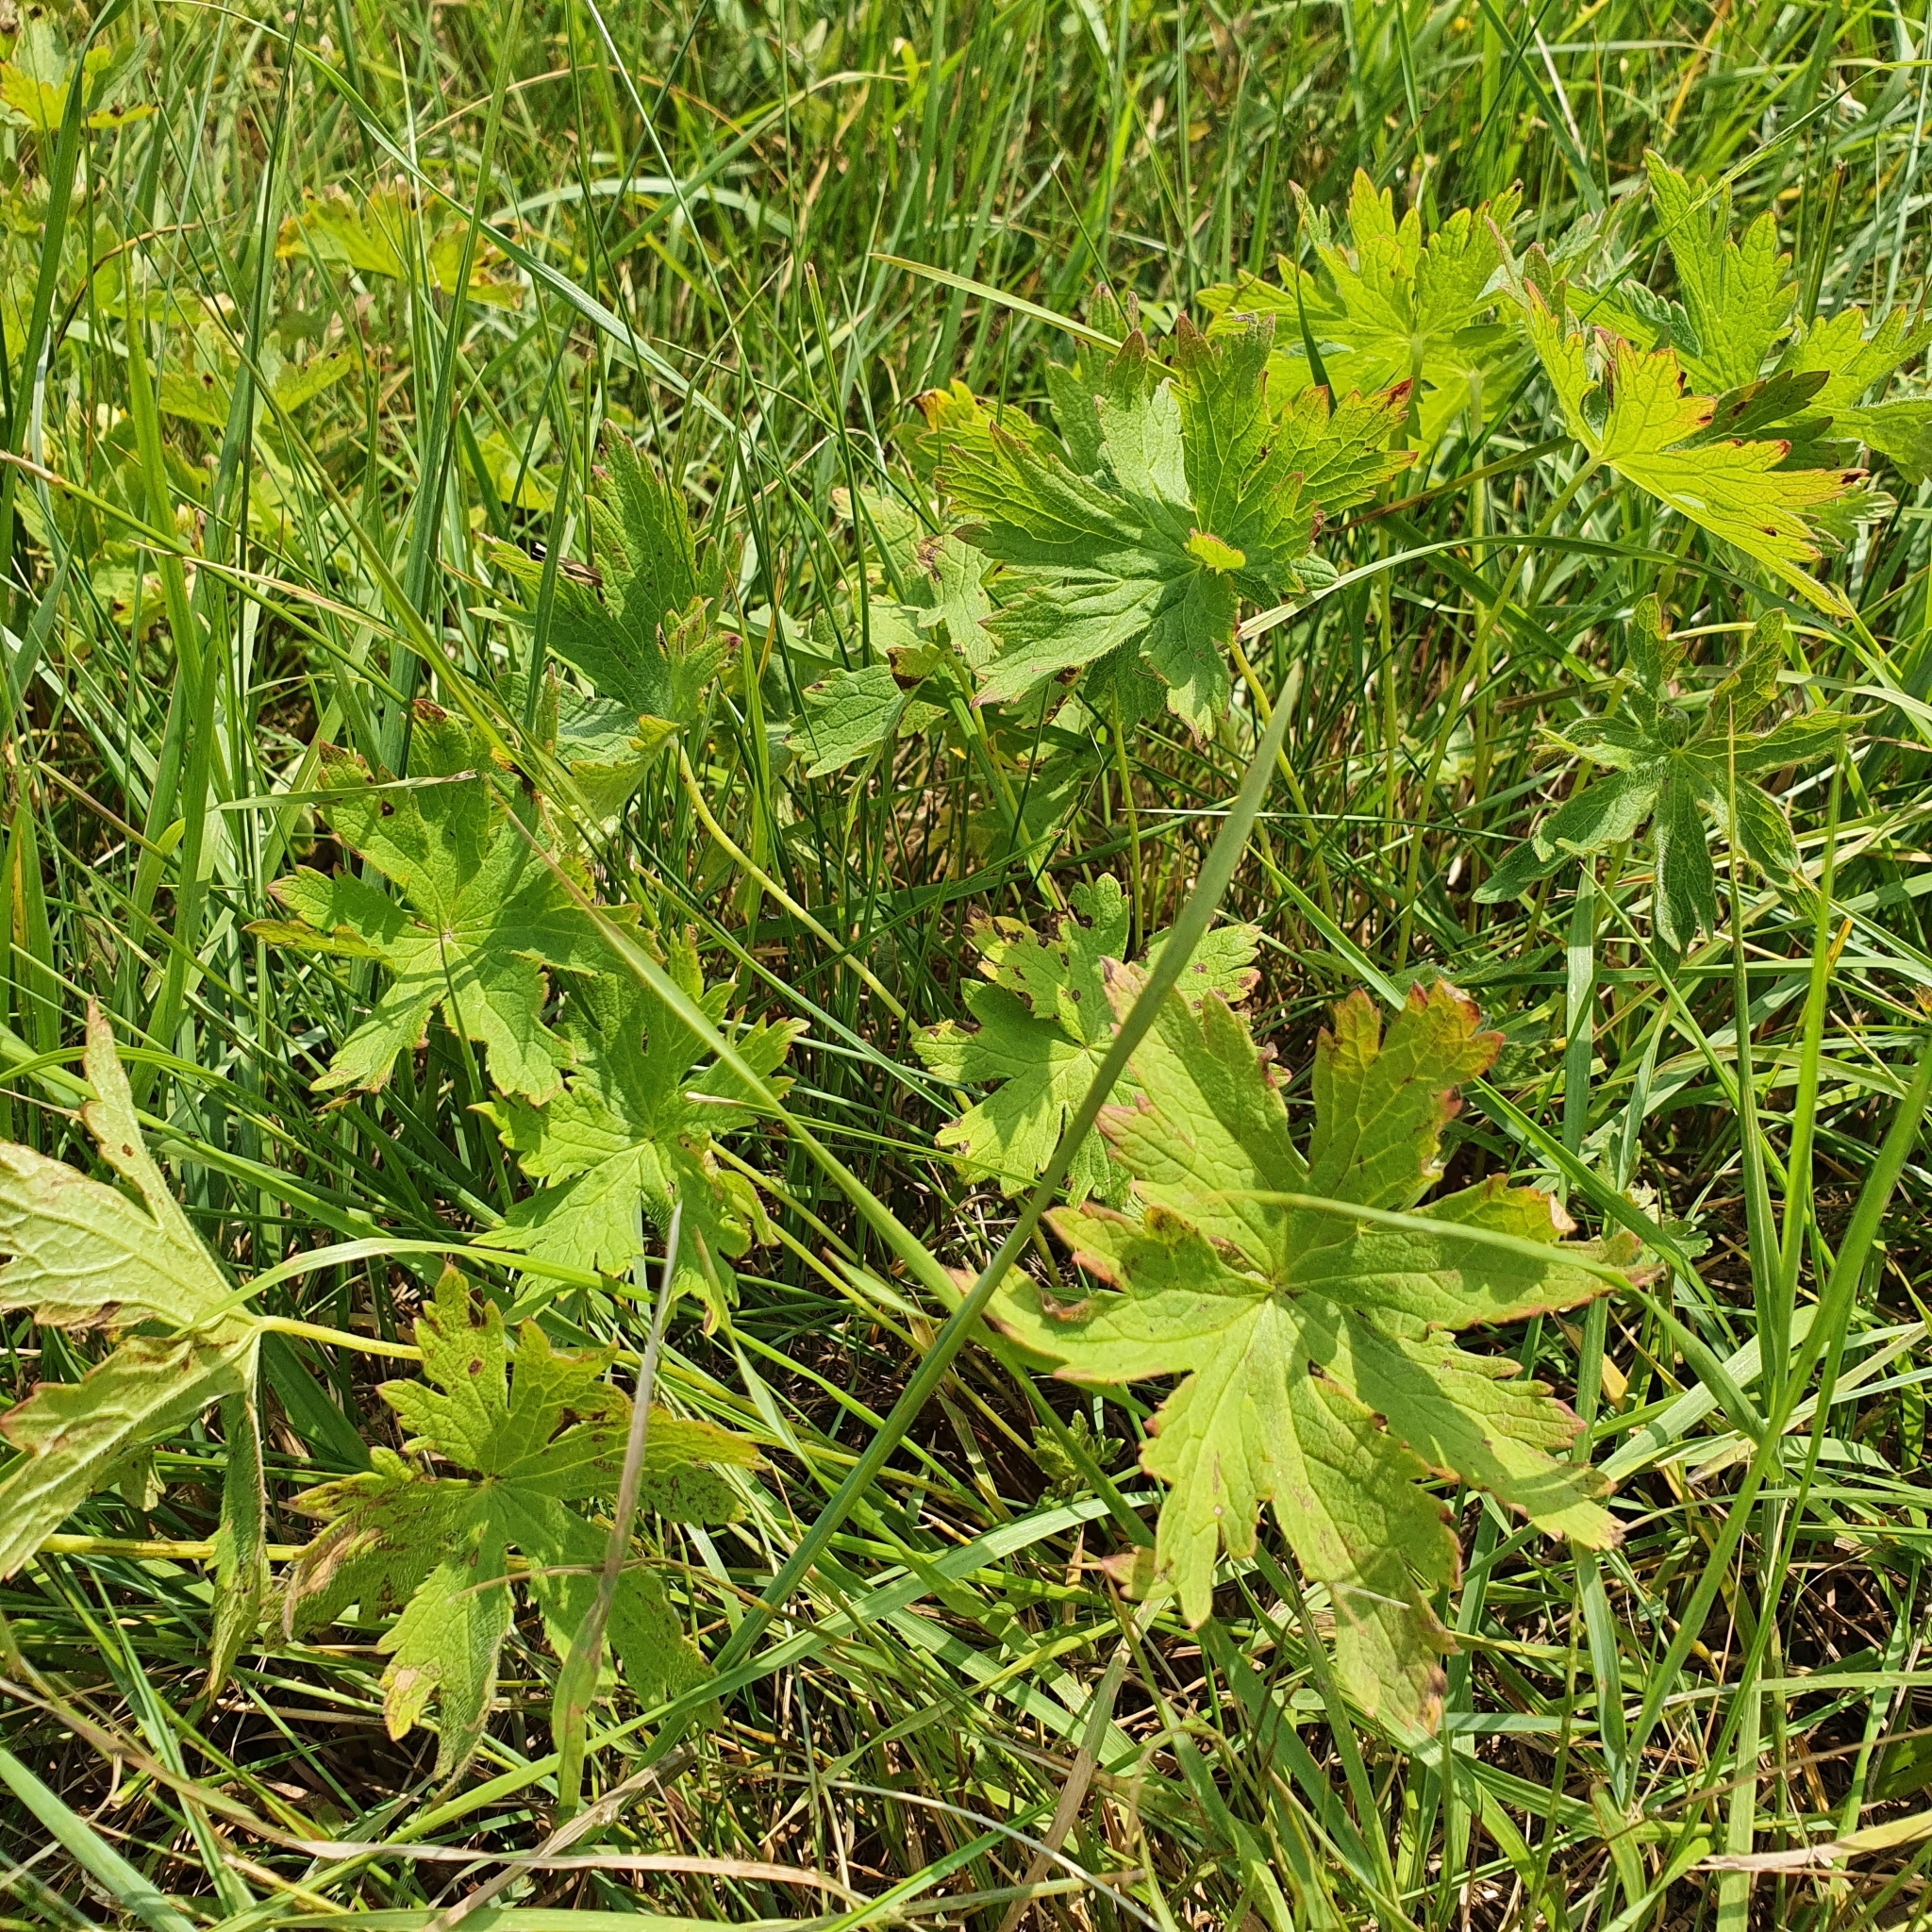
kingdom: Plantae
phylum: Tracheophyta
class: Magnoliopsida
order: Geraniales
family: Geraniaceae
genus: Geranium
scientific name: Geranium sylvaticum
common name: Wood crane's-bill
